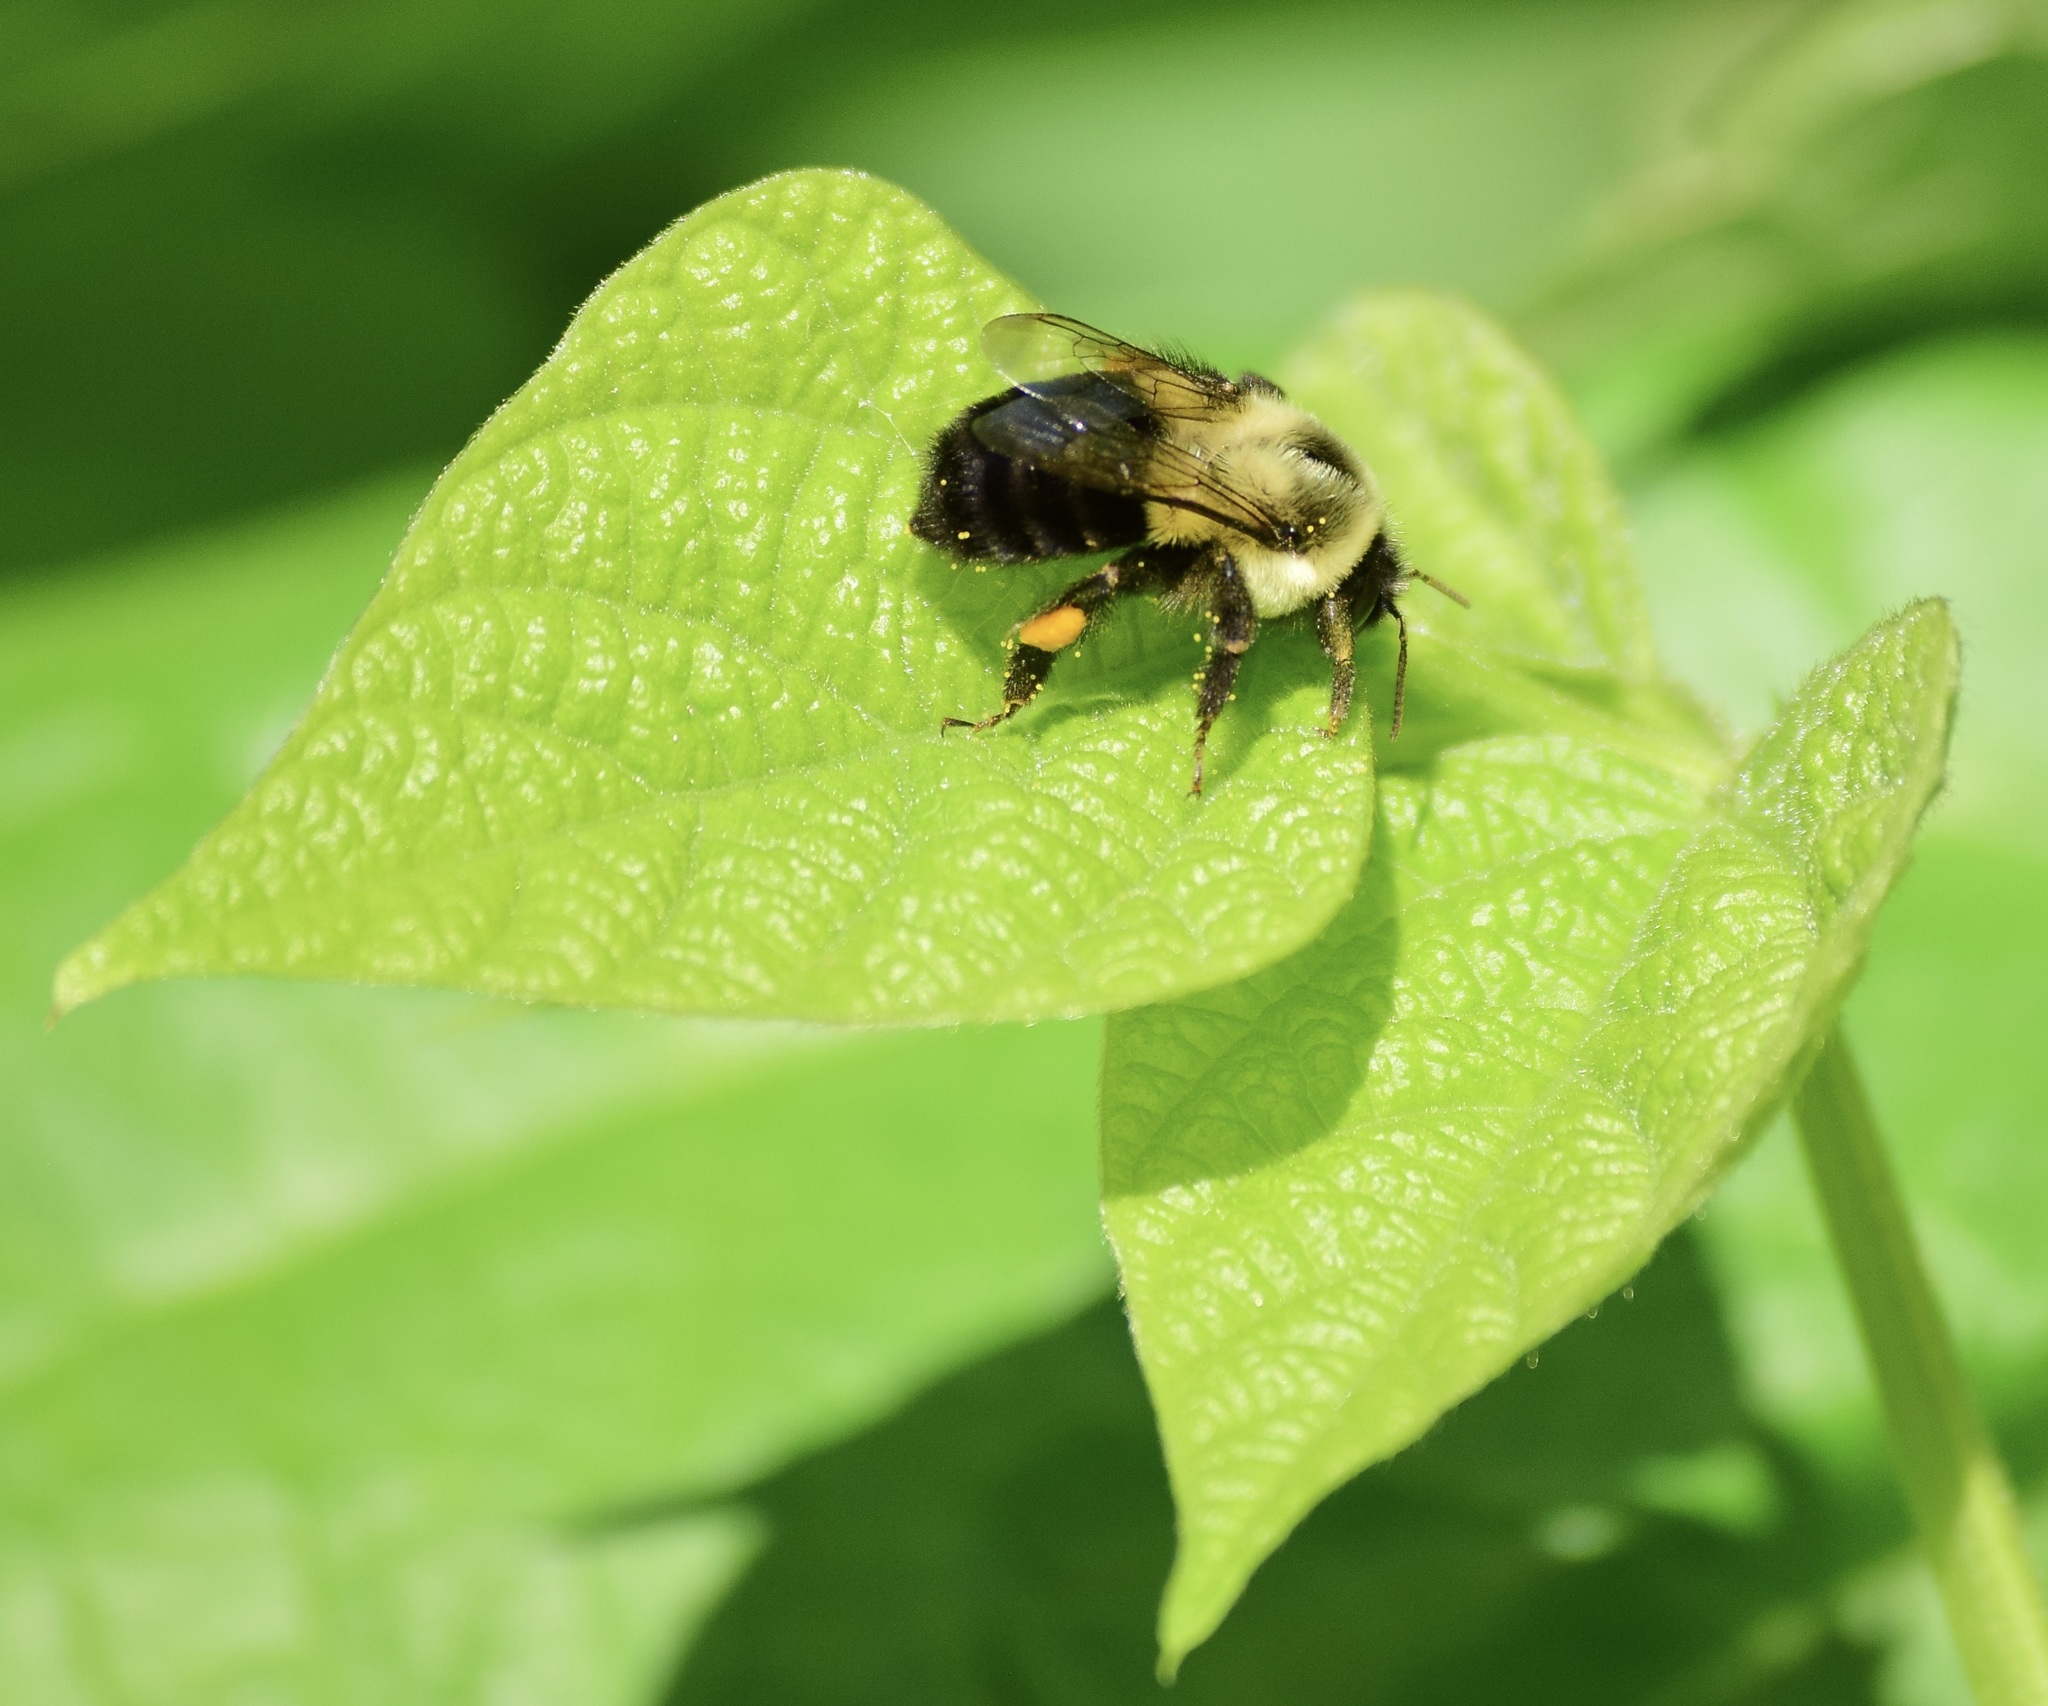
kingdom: Animalia
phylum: Arthropoda
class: Insecta
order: Hymenoptera
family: Apidae
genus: Bombus
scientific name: Bombus impatiens
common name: Common eastern bumble bee
